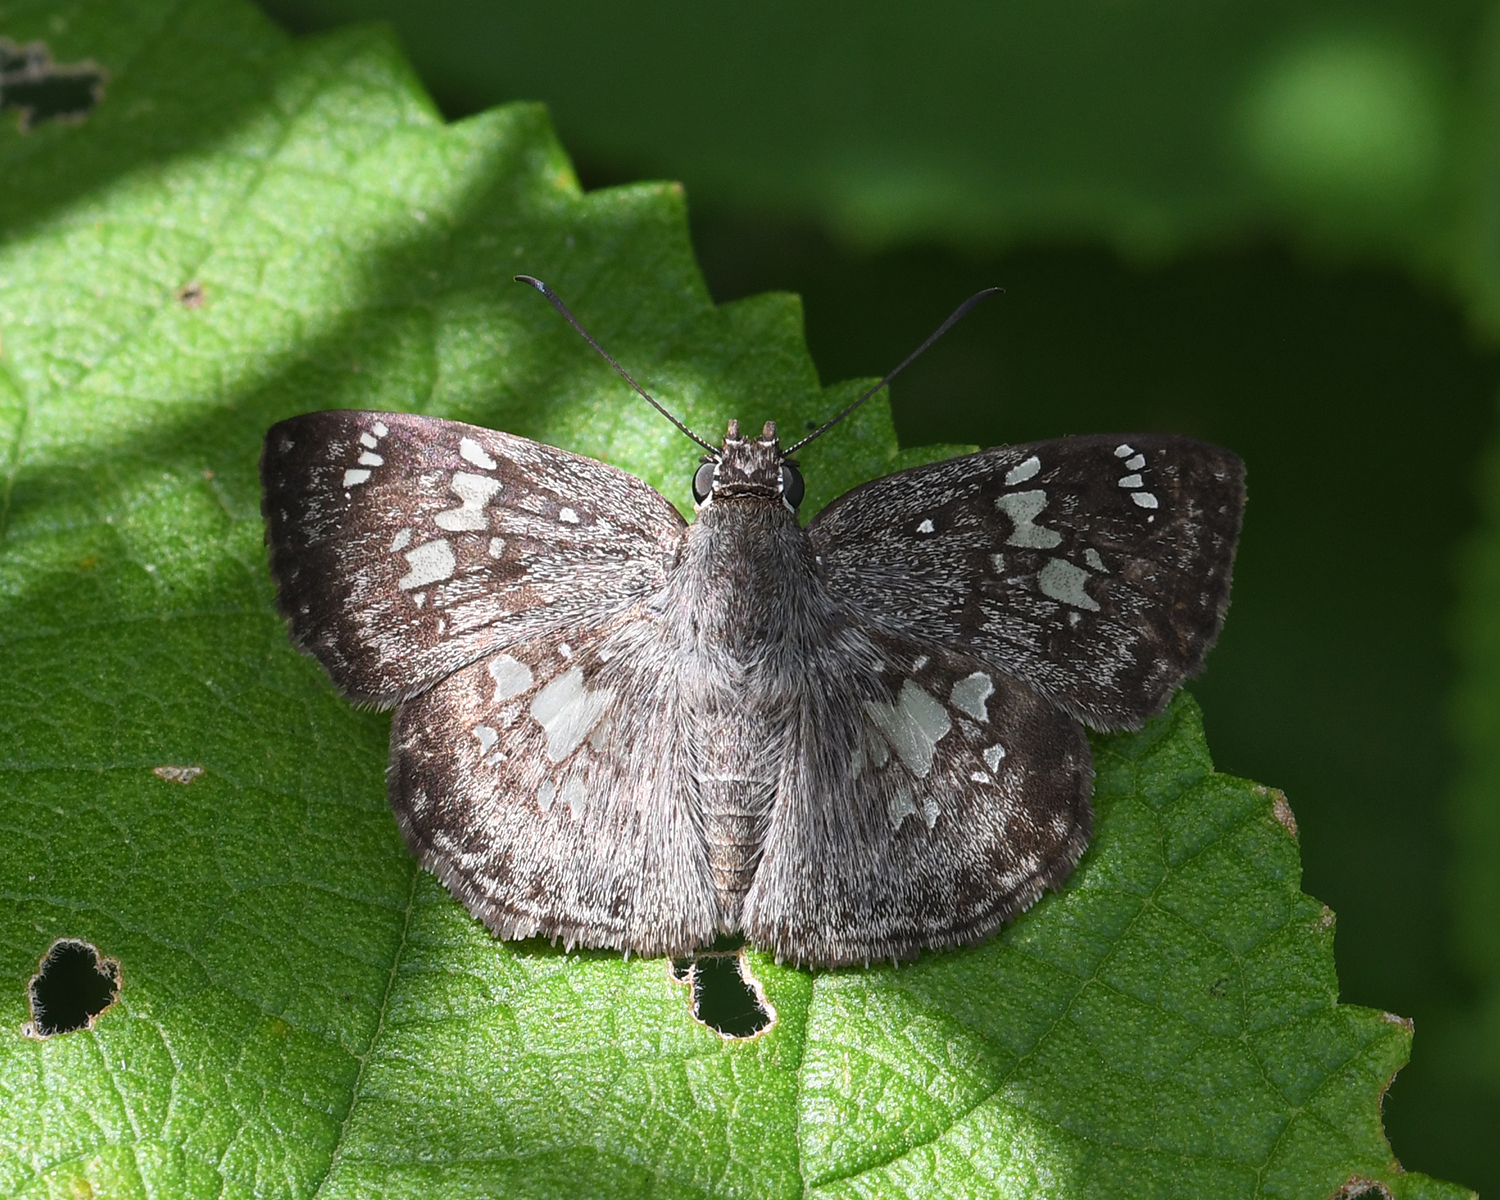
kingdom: Animalia
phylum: Arthropoda
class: Insecta
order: Lepidoptera
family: Hesperiidae
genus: Xenophanes
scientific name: Xenophanes tryxus
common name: Glassy-winged skipper
